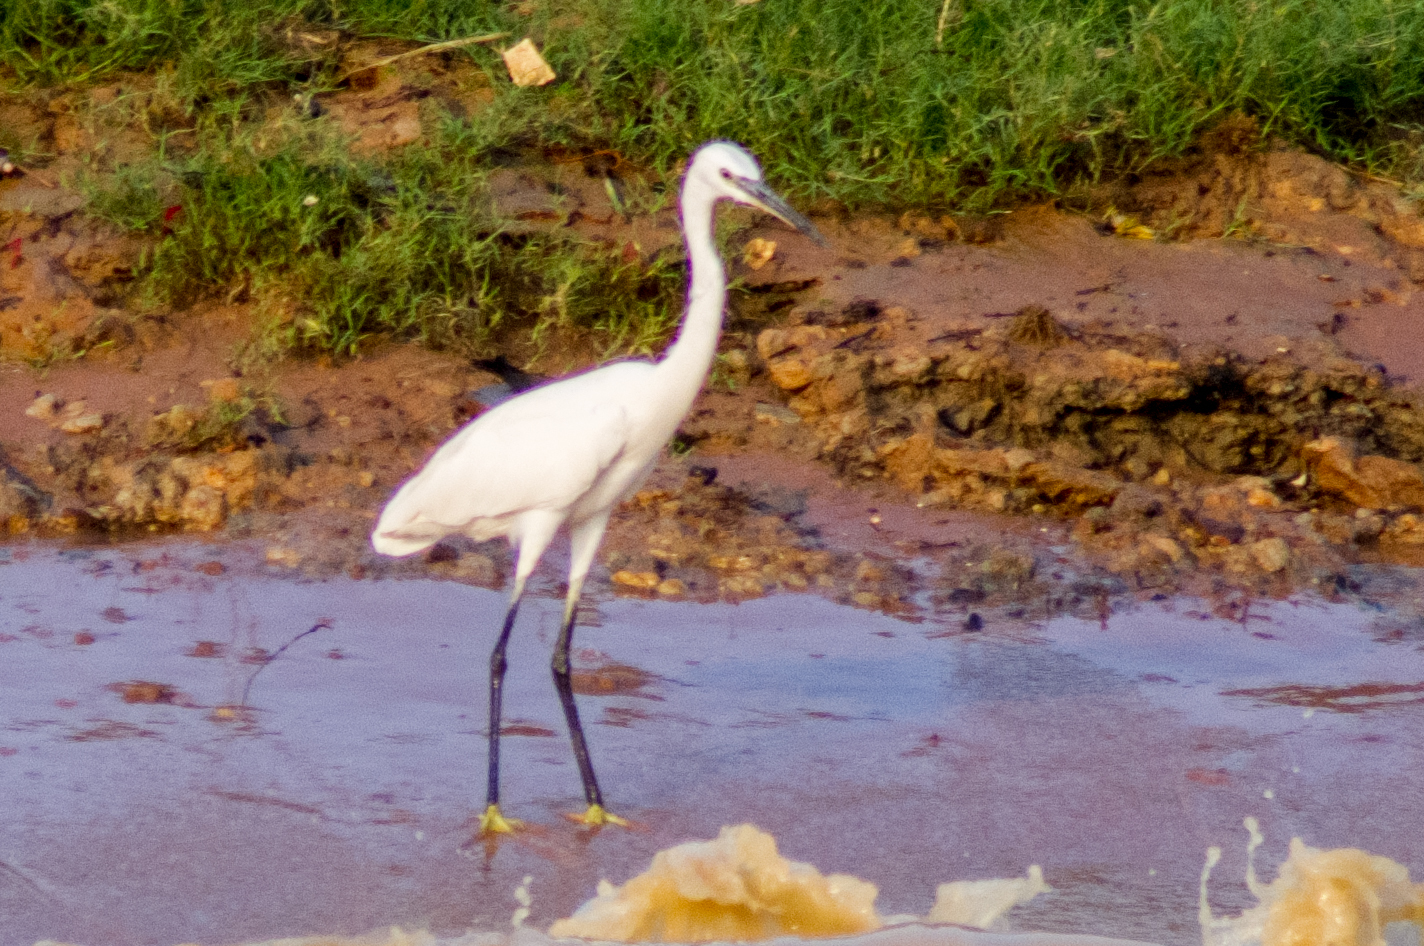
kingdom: Animalia
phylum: Chordata
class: Aves
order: Pelecaniformes
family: Ardeidae
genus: Egretta
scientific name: Egretta garzetta
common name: Little egret
